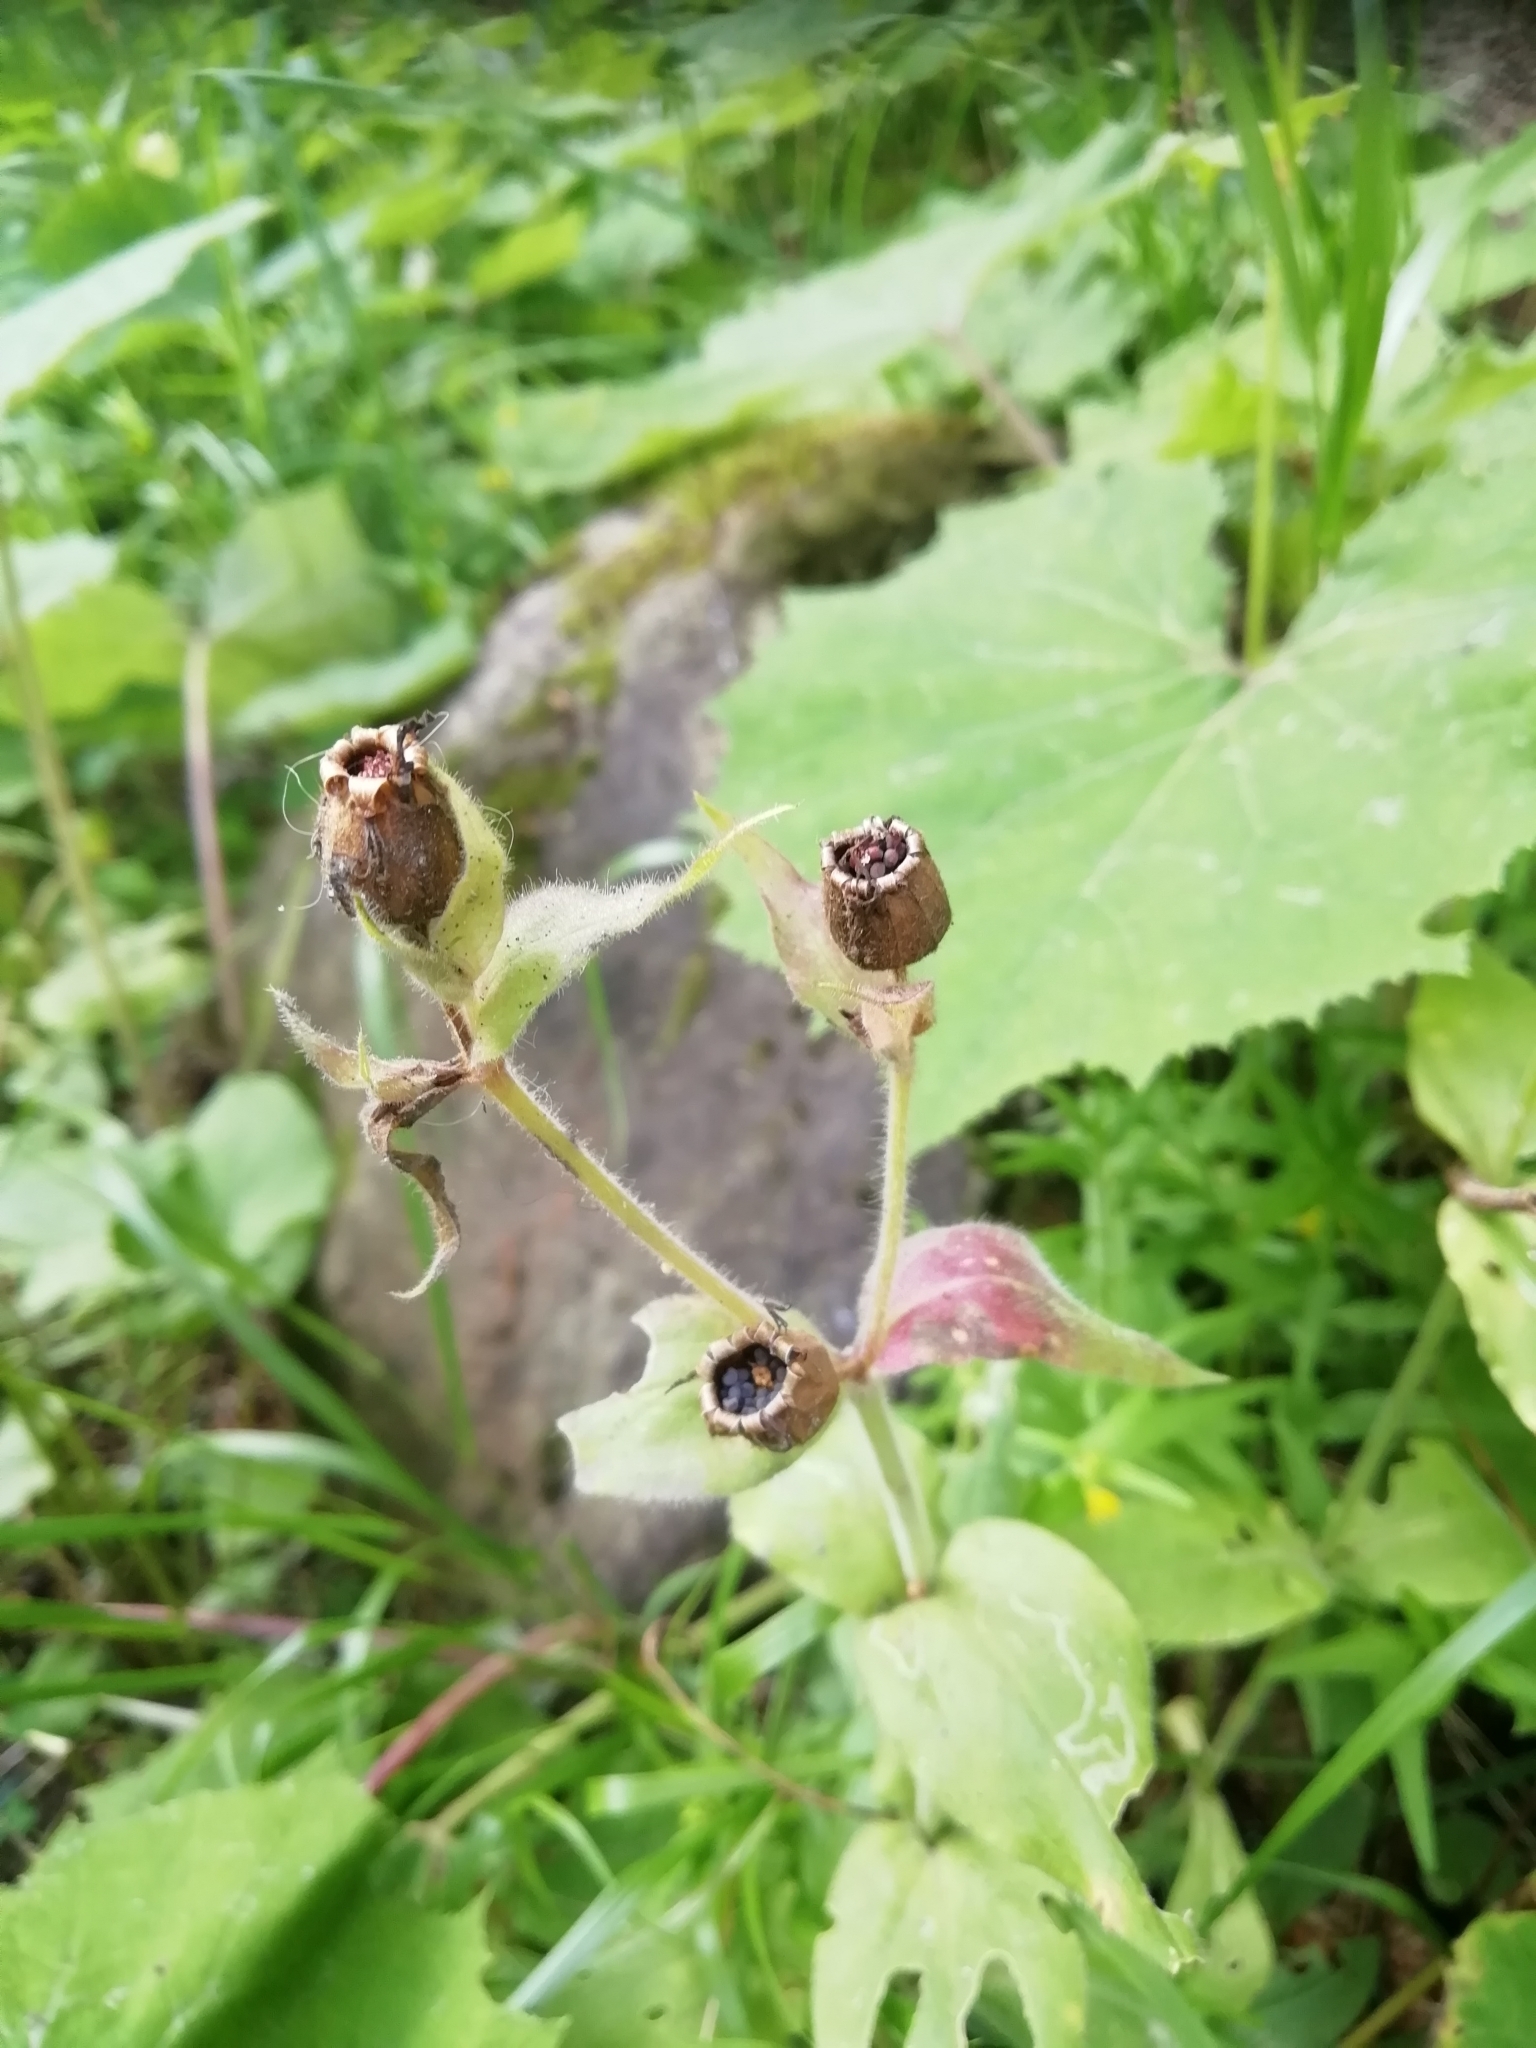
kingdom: Plantae
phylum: Tracheophyta
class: Magnoliopsida
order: Caryophyllales
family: Caryophyllaceae
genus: Silene
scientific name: Silene dioica
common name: Red campion
